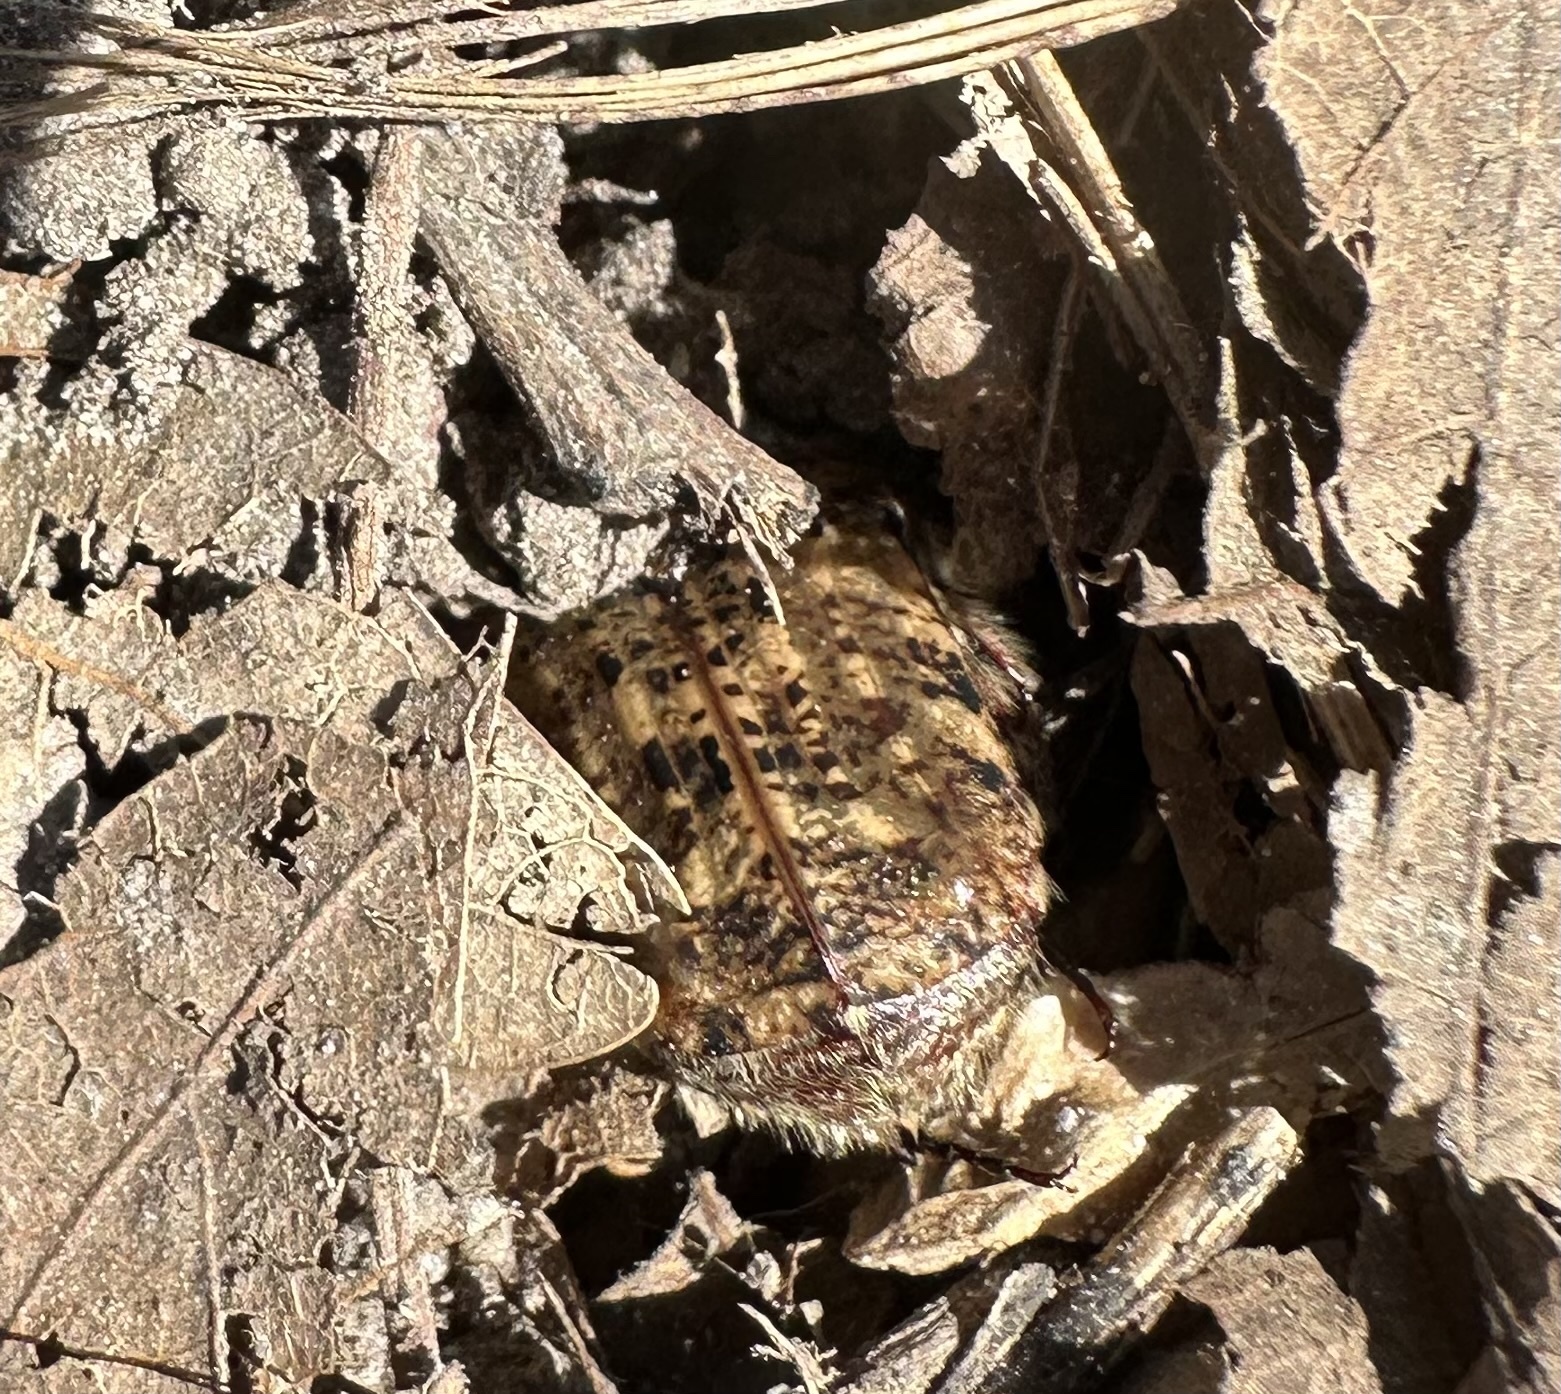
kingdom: Animalia
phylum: Arthropoda
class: Insecta
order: Coleoptera
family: Scarabaeidae
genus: Euphoria
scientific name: Euphoria inda
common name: Bumble flower beetle
